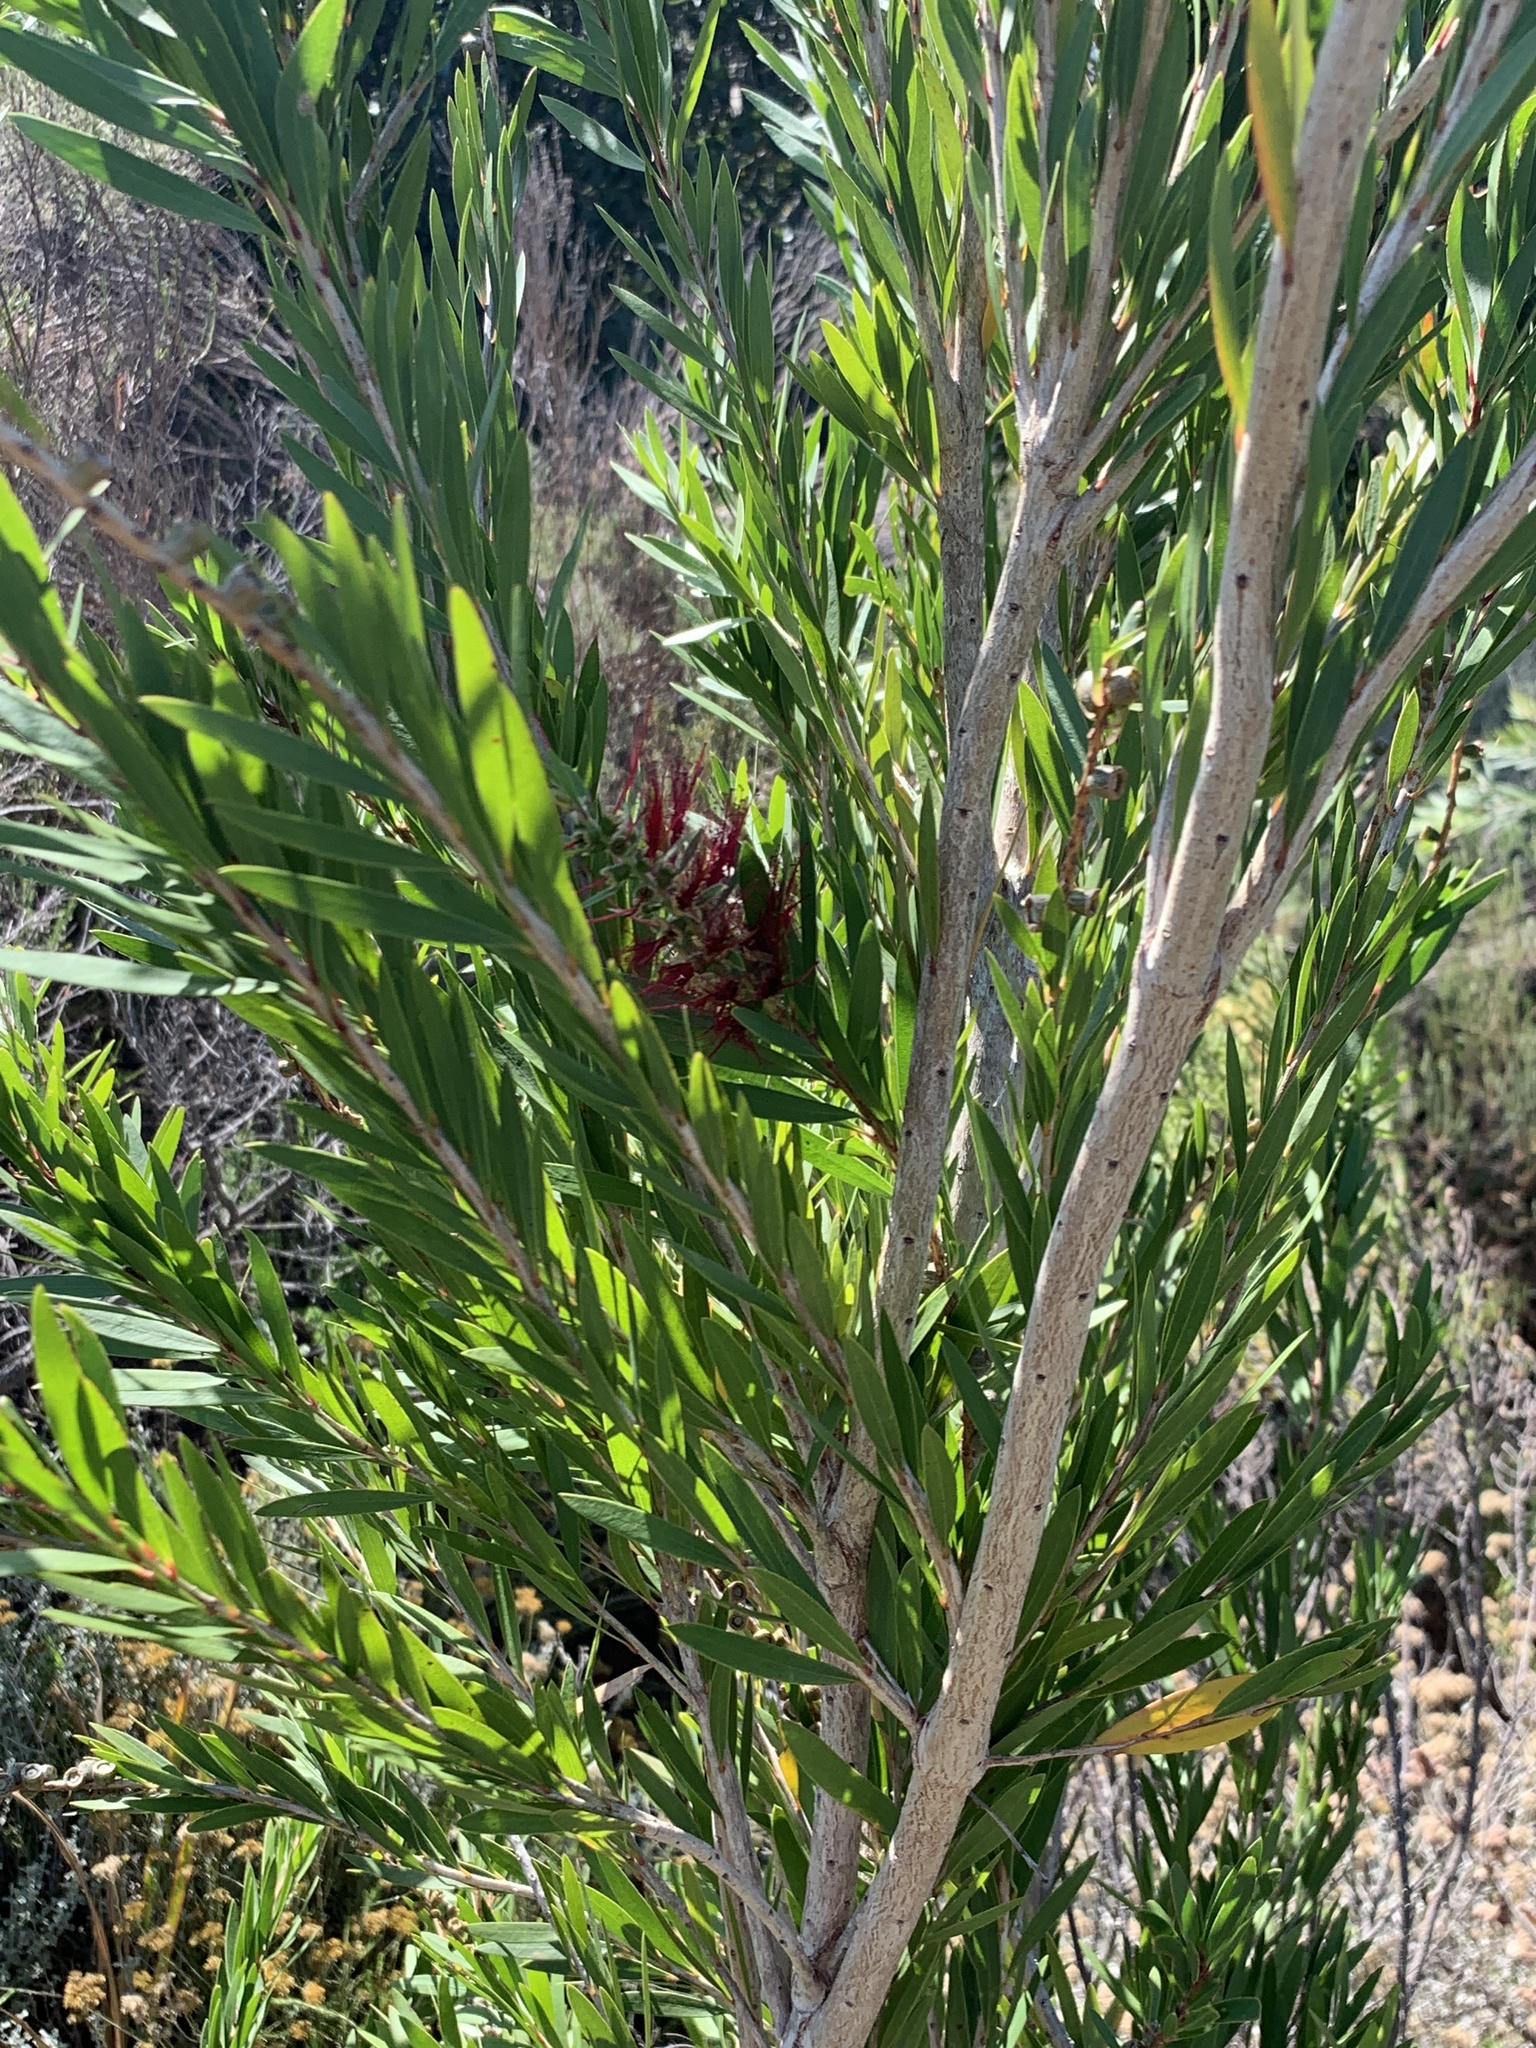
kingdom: Plantae
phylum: Tracheophyta
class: Magnoliopsida
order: Myrtales
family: Myrtaceae
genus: Callistemon
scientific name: Callistemon viminalis
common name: Drooping bottlebrush
